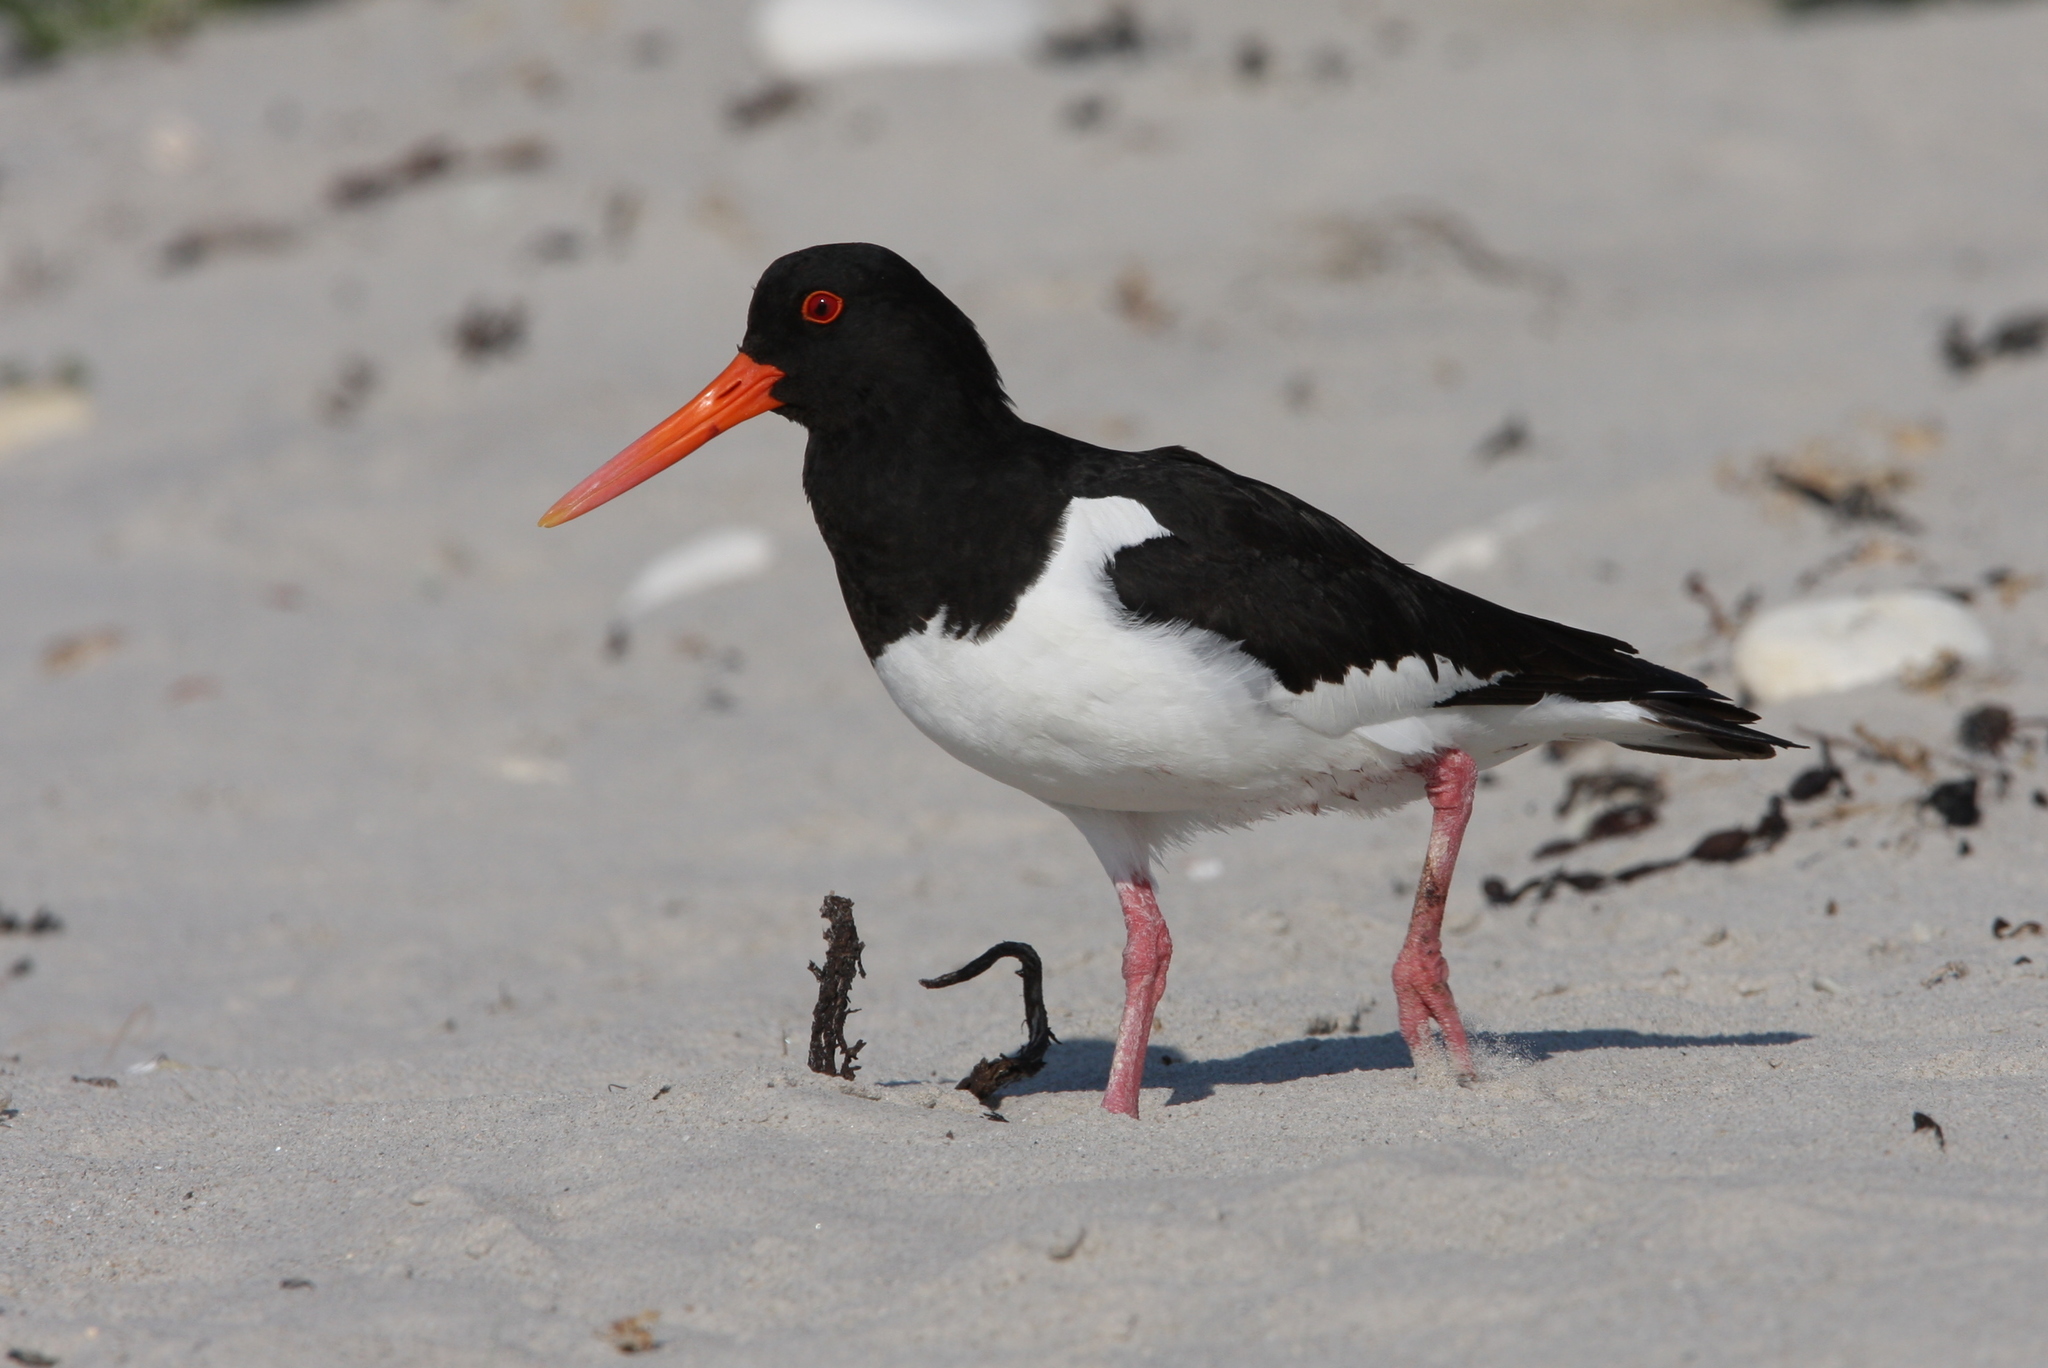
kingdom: Animalia
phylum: Chordata
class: Aves
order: Charadriiformes
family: Haematopodidae
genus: Haematopus
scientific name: Haematopus ostralegus
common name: Eurasian oystercatcher
